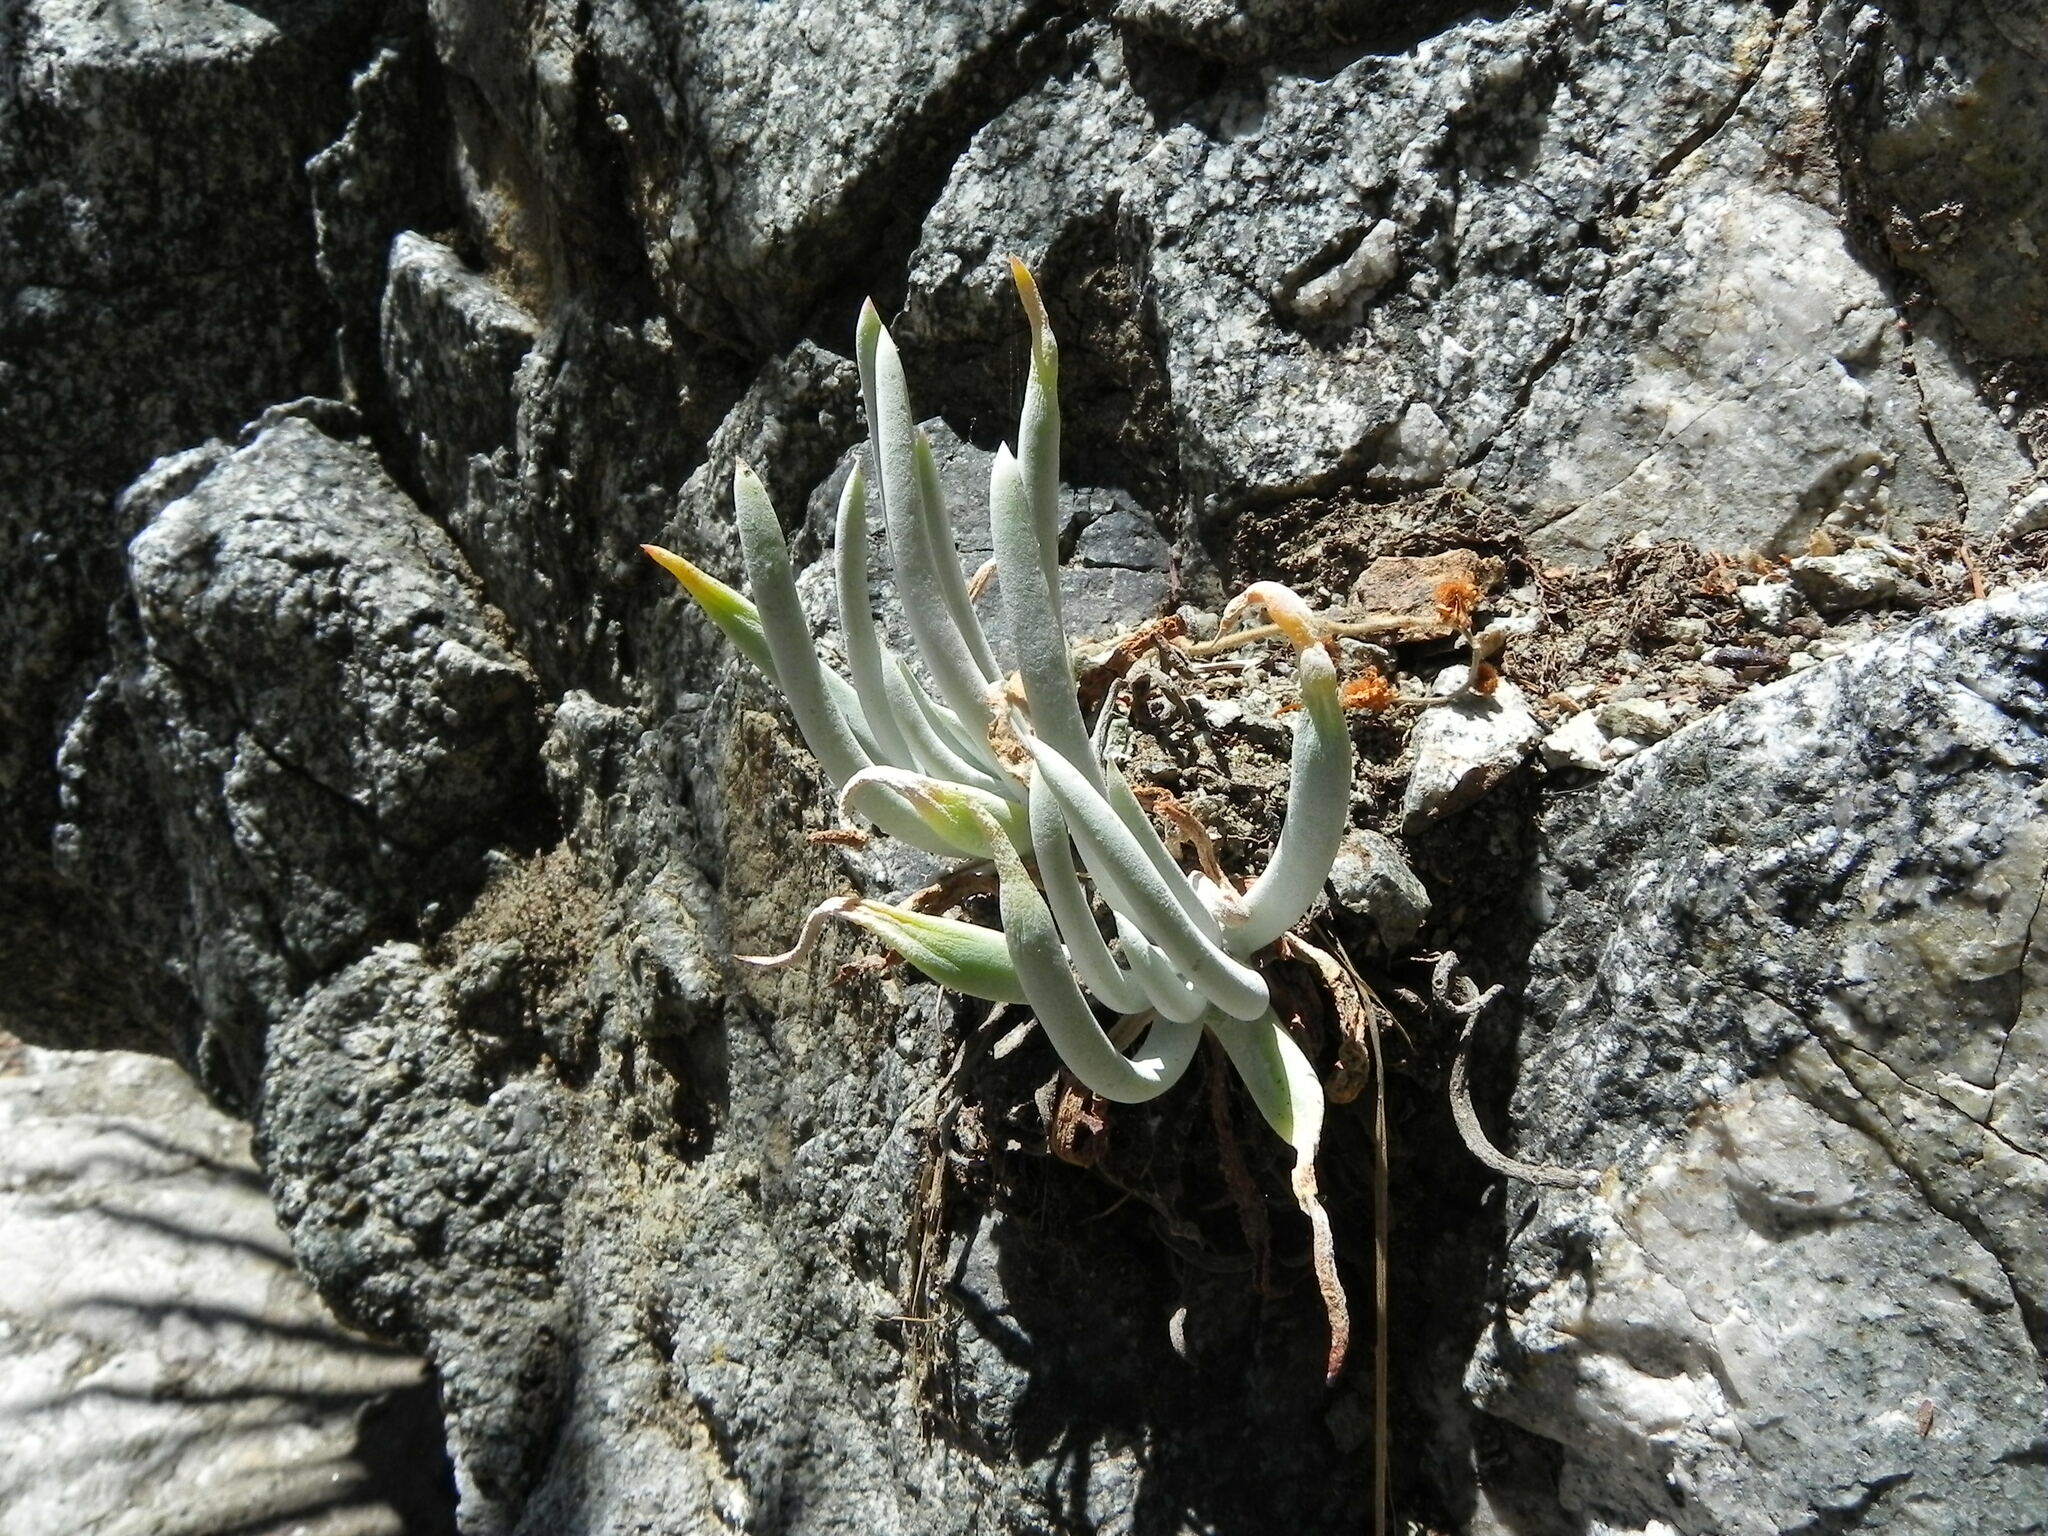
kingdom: Plantae
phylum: Tracheophyta
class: Magnoliopsida
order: Saxifragales
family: Crassulaceae
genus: Dudleya
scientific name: Dudleya densiflora
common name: San gabriel mountains dudleya
